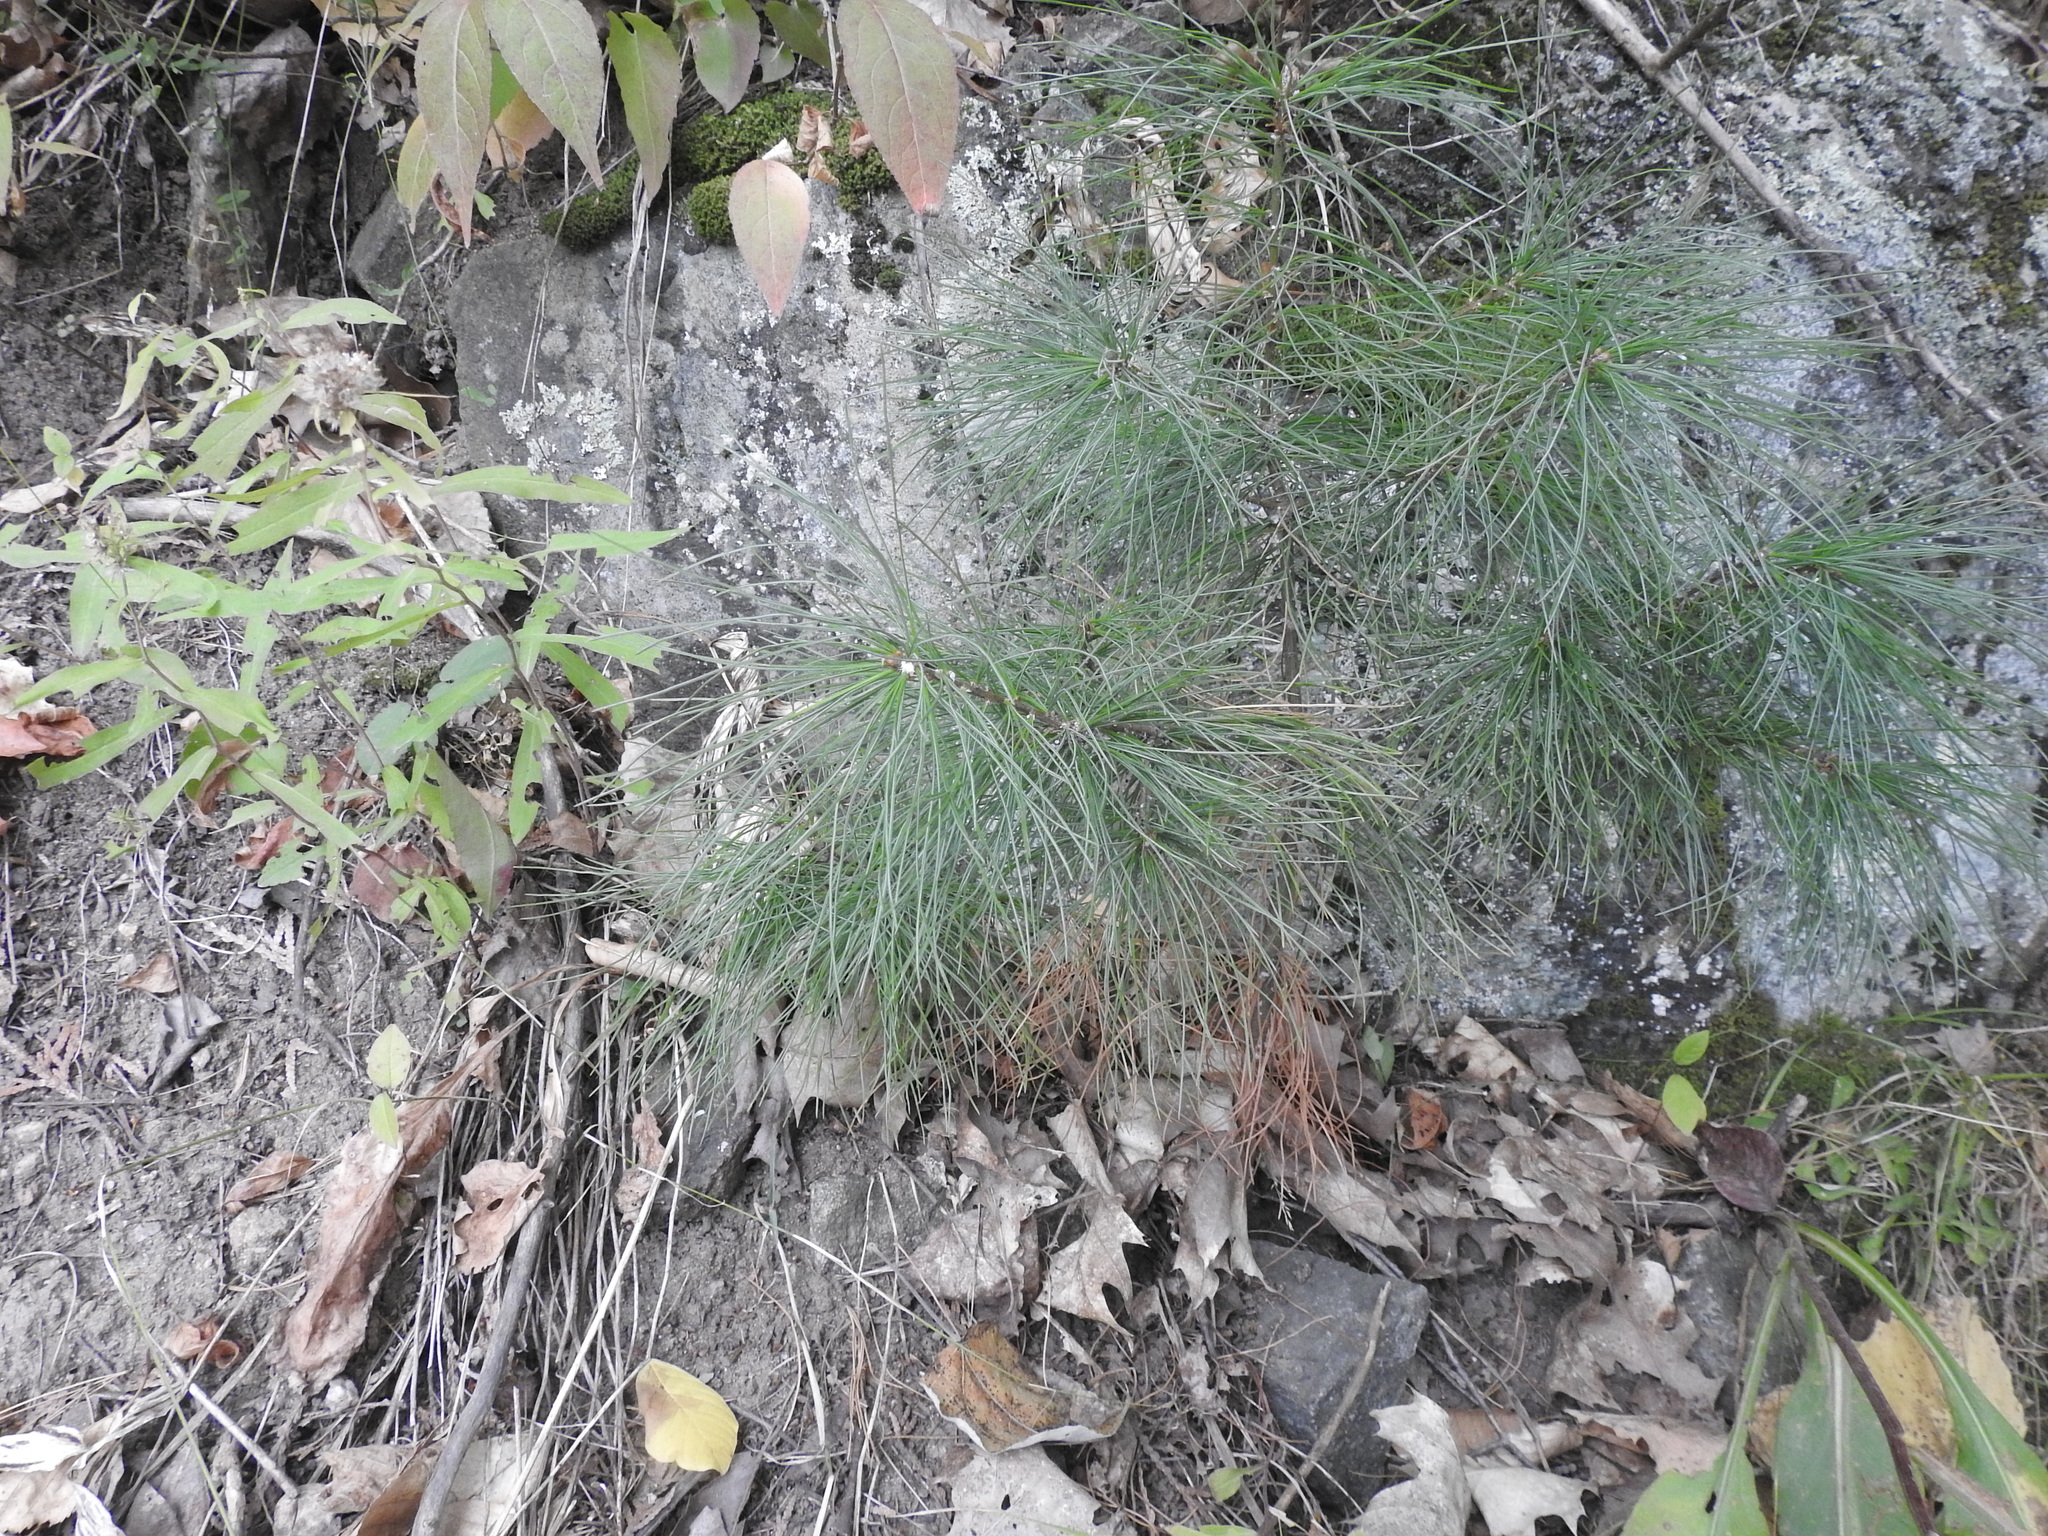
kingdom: Plantae
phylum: Tracheophyta
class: Pinopsida
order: Pinales
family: Pinaceae
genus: Pinus
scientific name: Pinus strobus
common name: Weymouth pine
